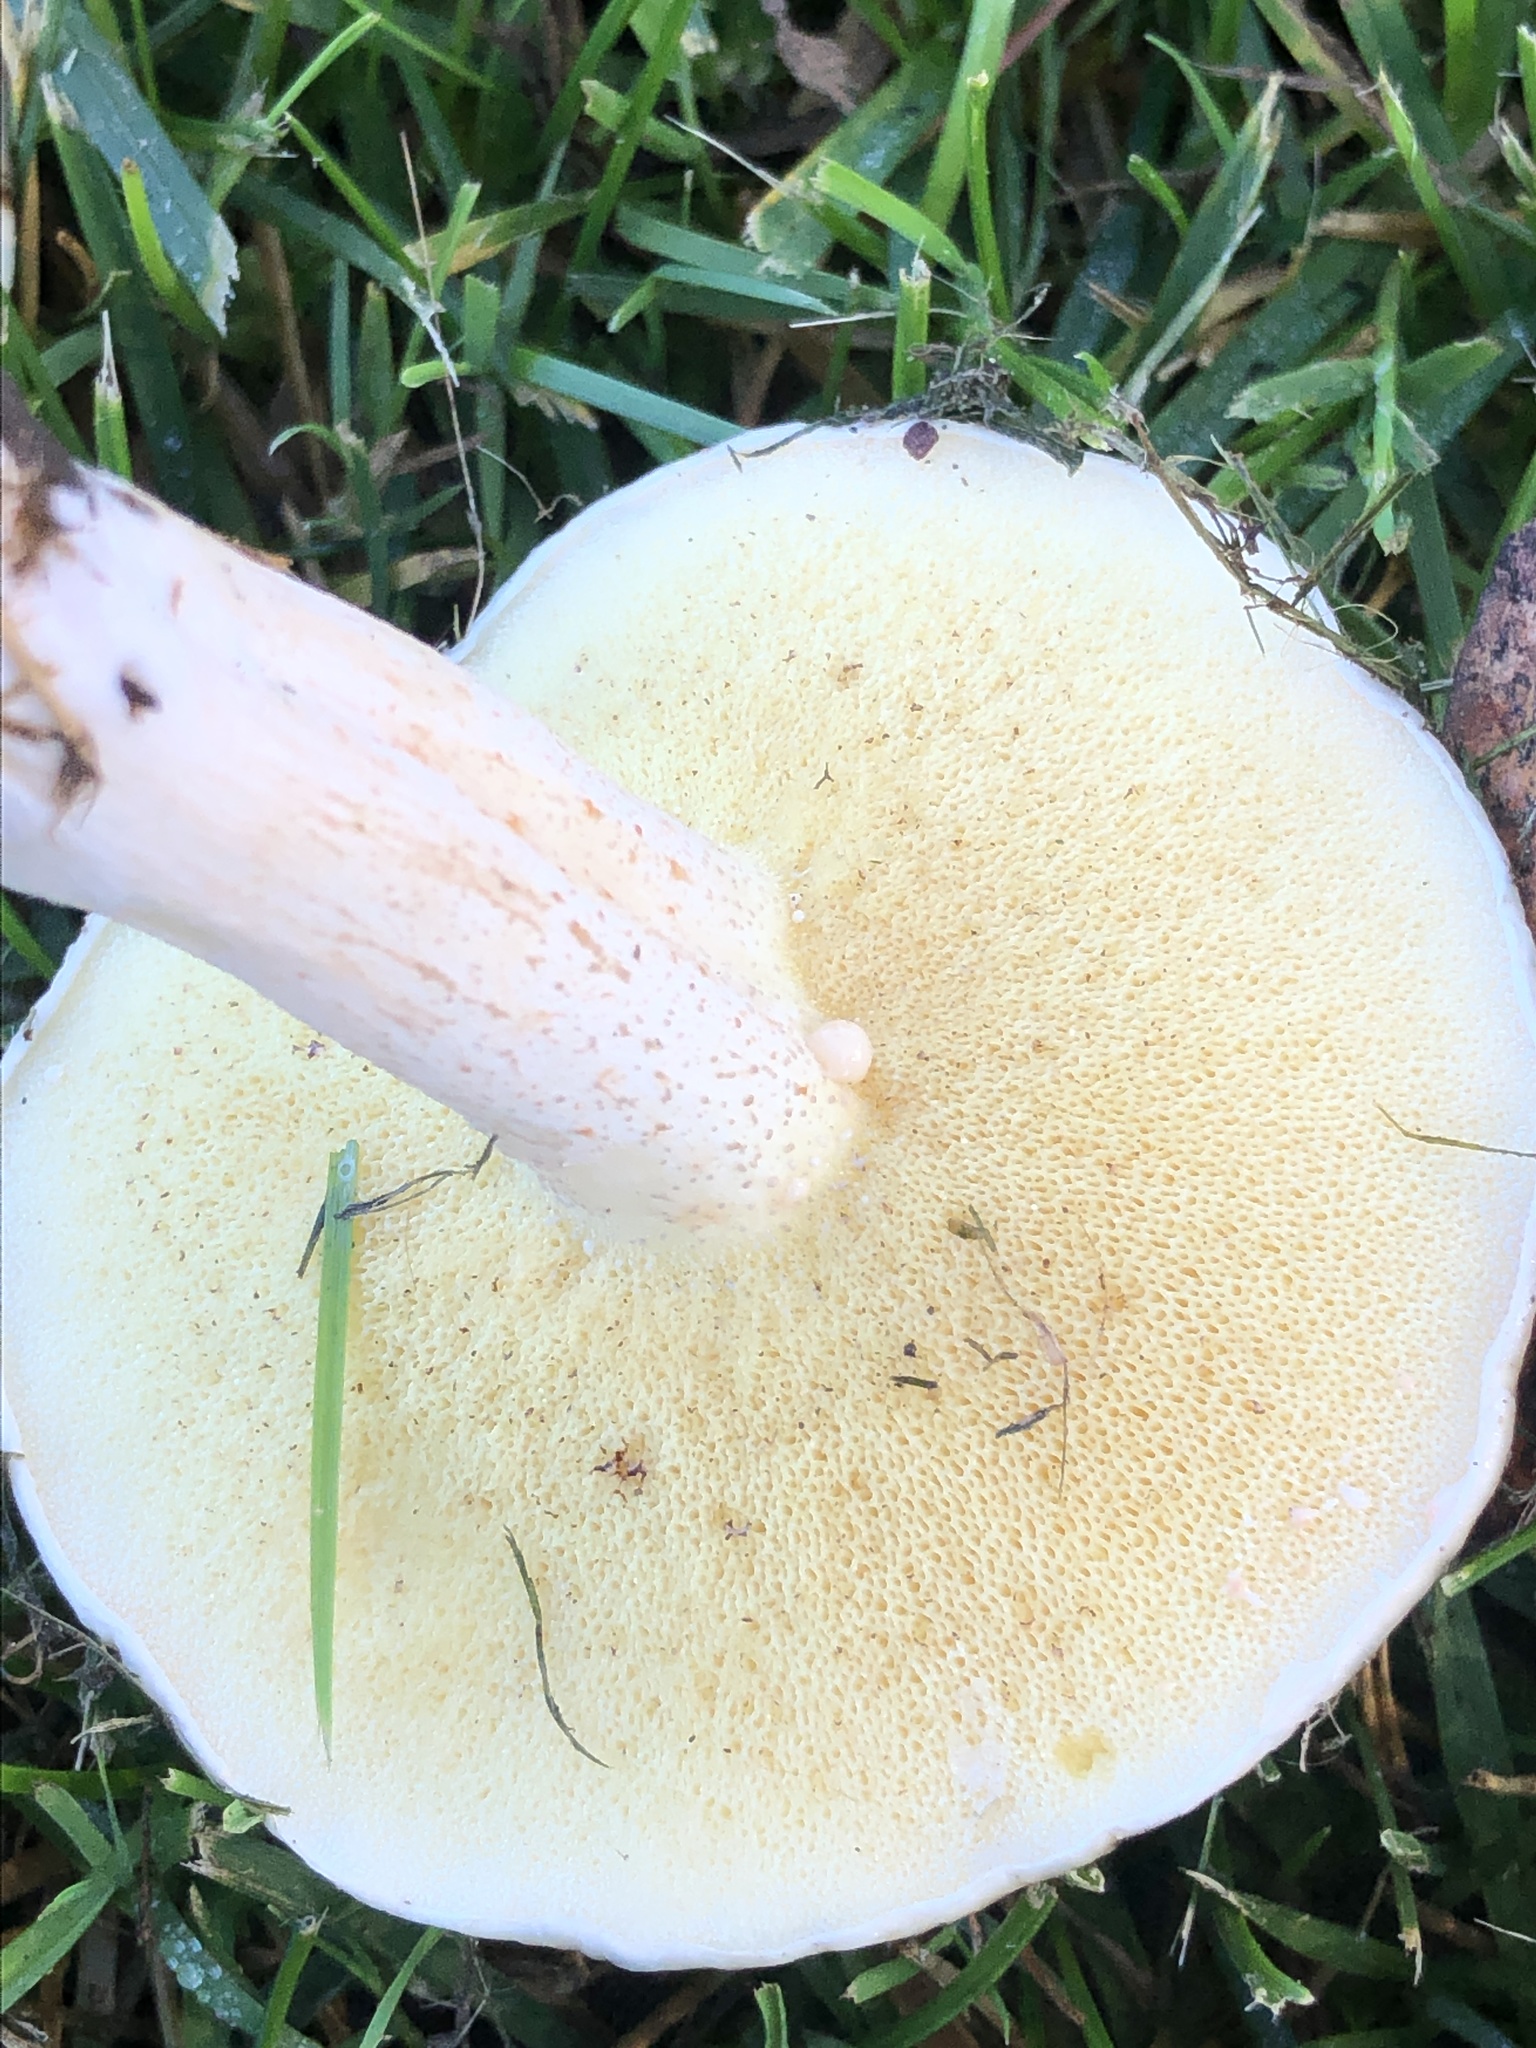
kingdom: Fungi
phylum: Basidiomycota
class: Agaricomycetes
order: Boletales
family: Suillaceae
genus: Suillus
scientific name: Suillus pungens
